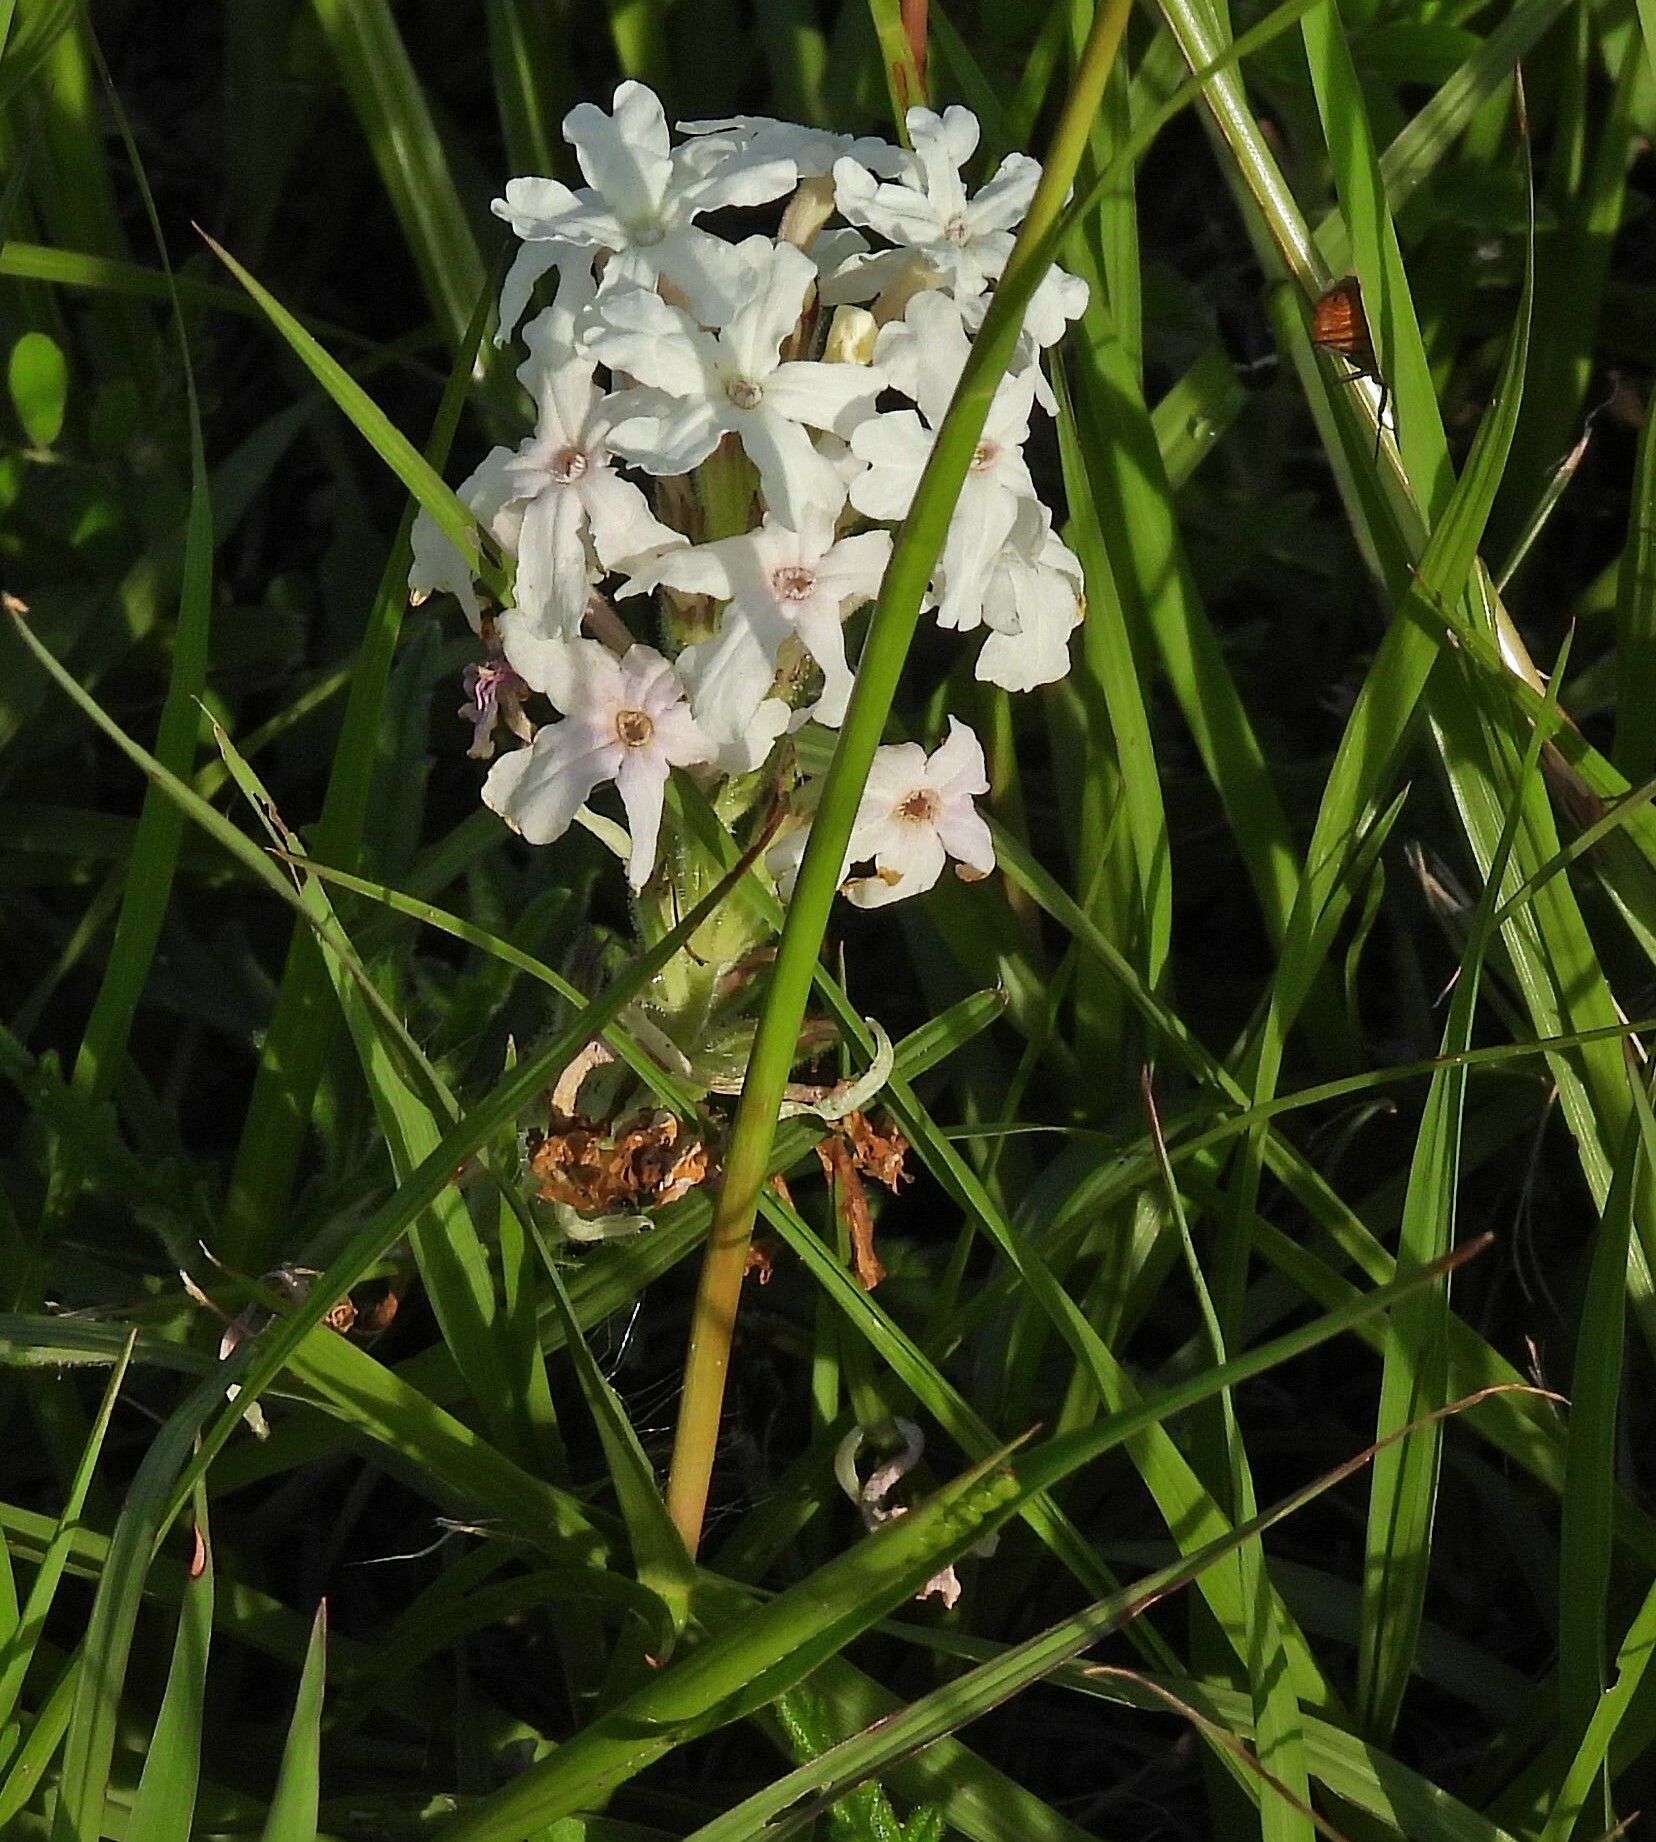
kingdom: Plantae
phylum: Tracheophyta
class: Magnoliopsida
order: Lamiales
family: Verbenaceae
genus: Verbena
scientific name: Verbena platensis
